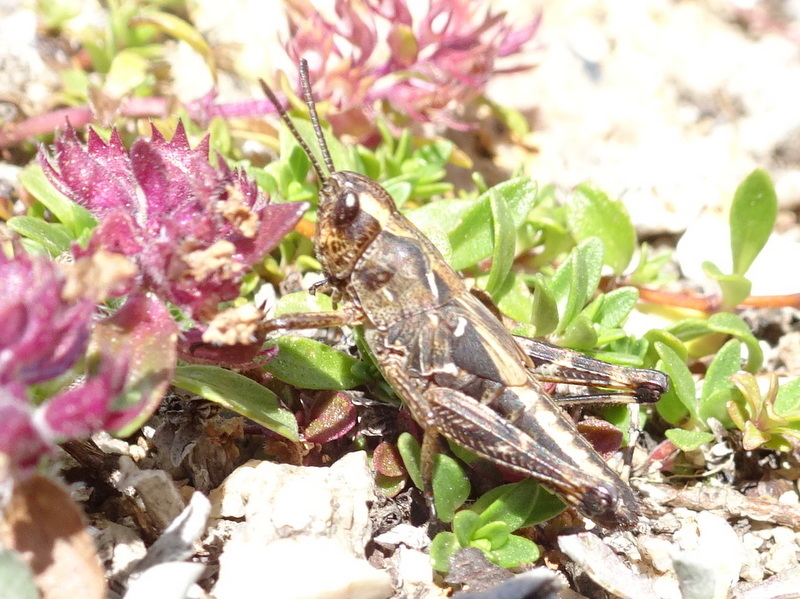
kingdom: Animalia
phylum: Arthropoda
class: Insecta
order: Orthoptera
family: Acrididae
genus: Gomphocerus
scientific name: Gomphocerus sibiricus
